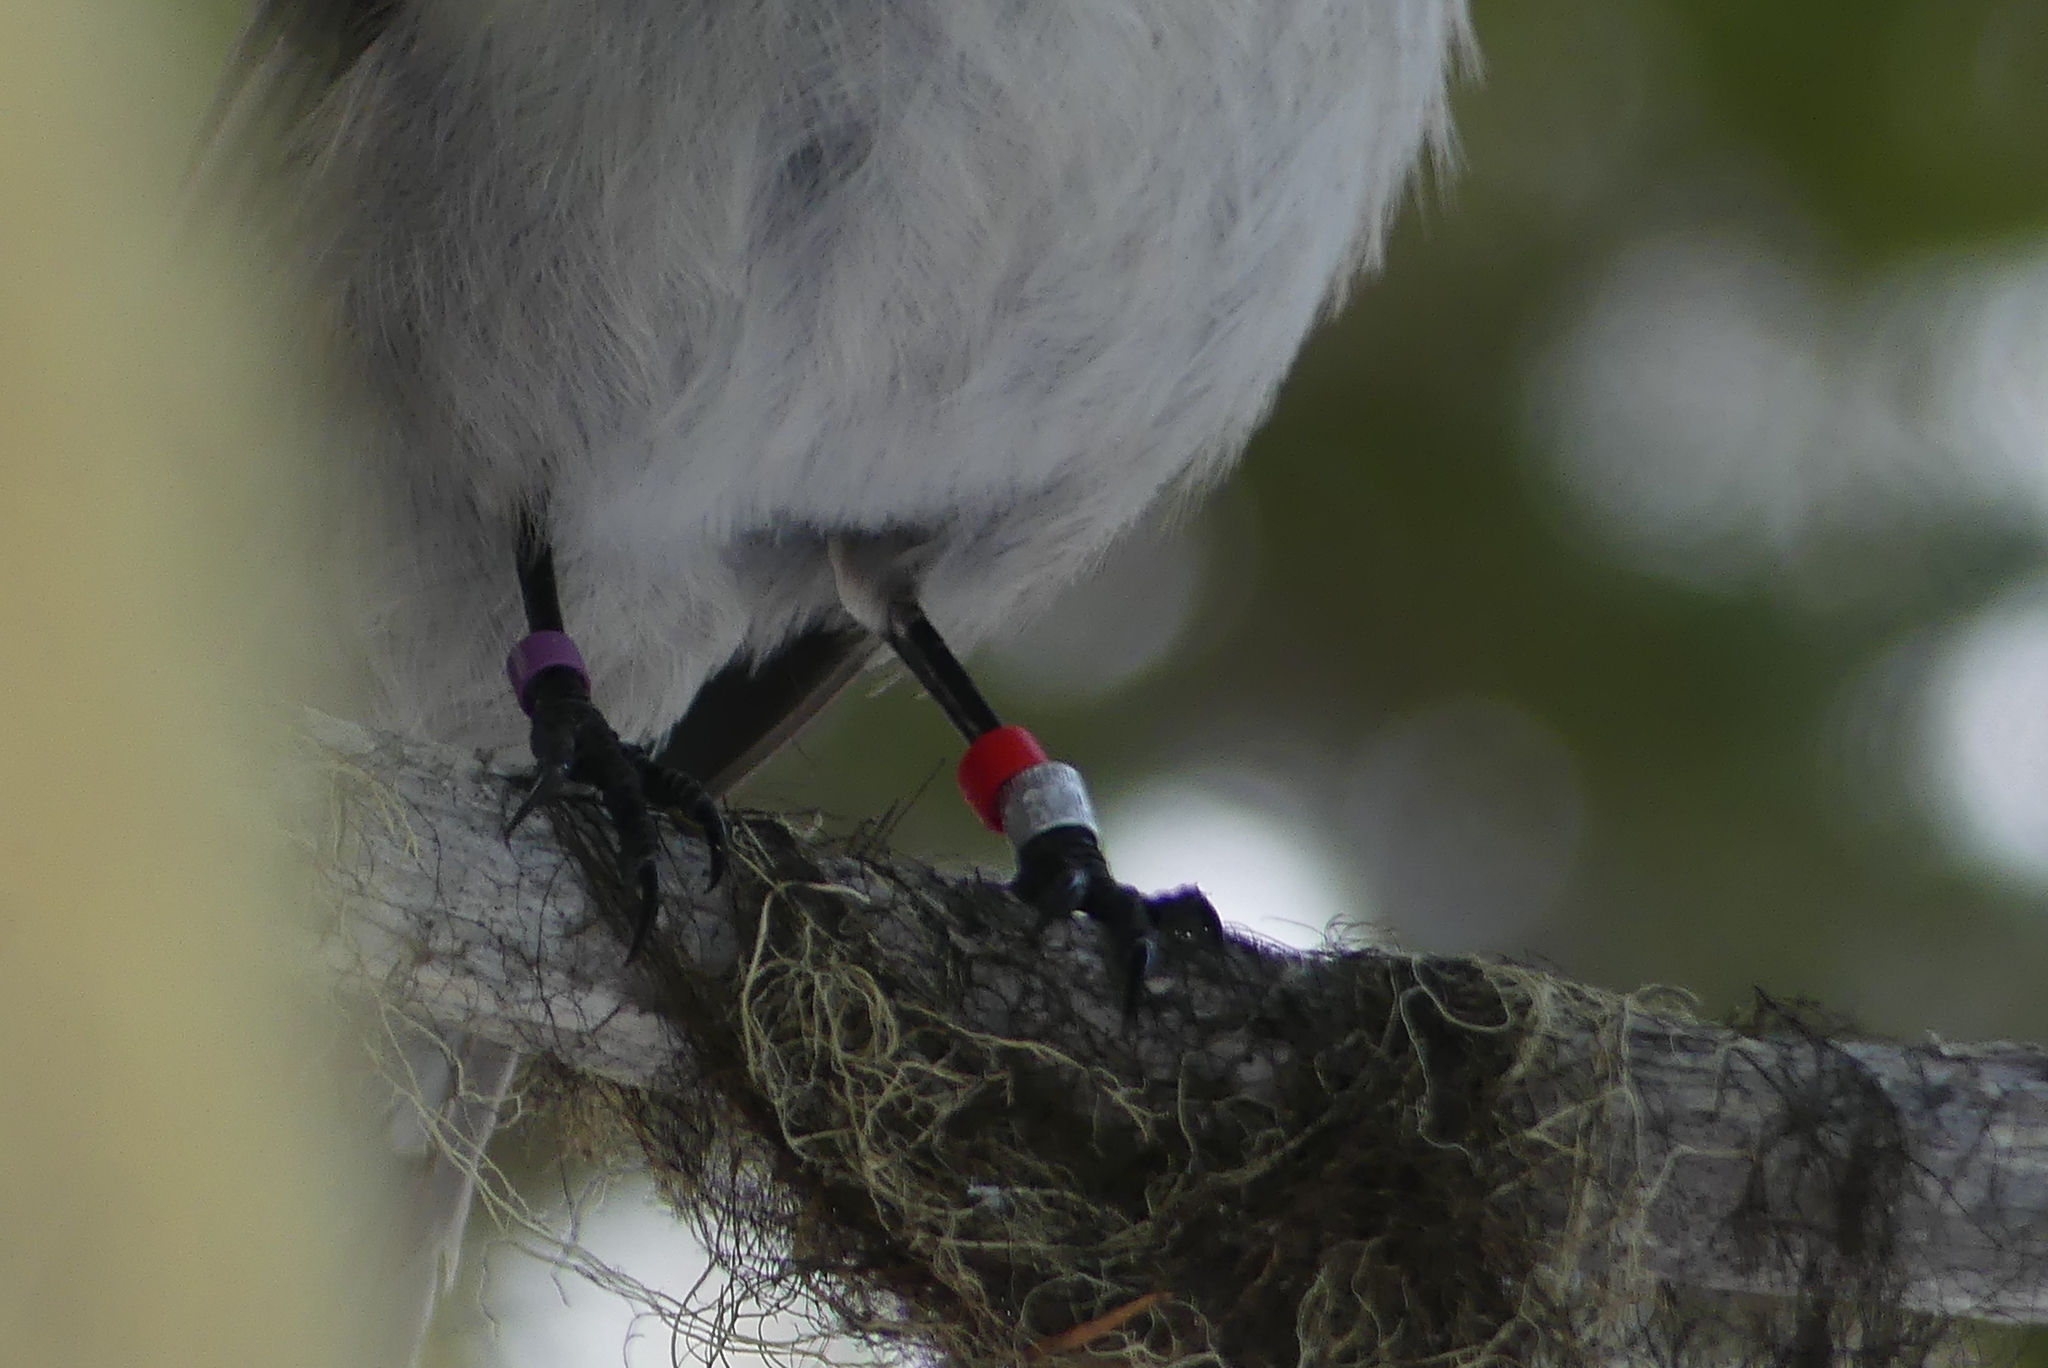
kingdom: Animalia
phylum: Chordata
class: Aves
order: Passeriformes
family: Corvidae
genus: Perisoreus
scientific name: Perisoreus canadensis
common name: Gray jay
